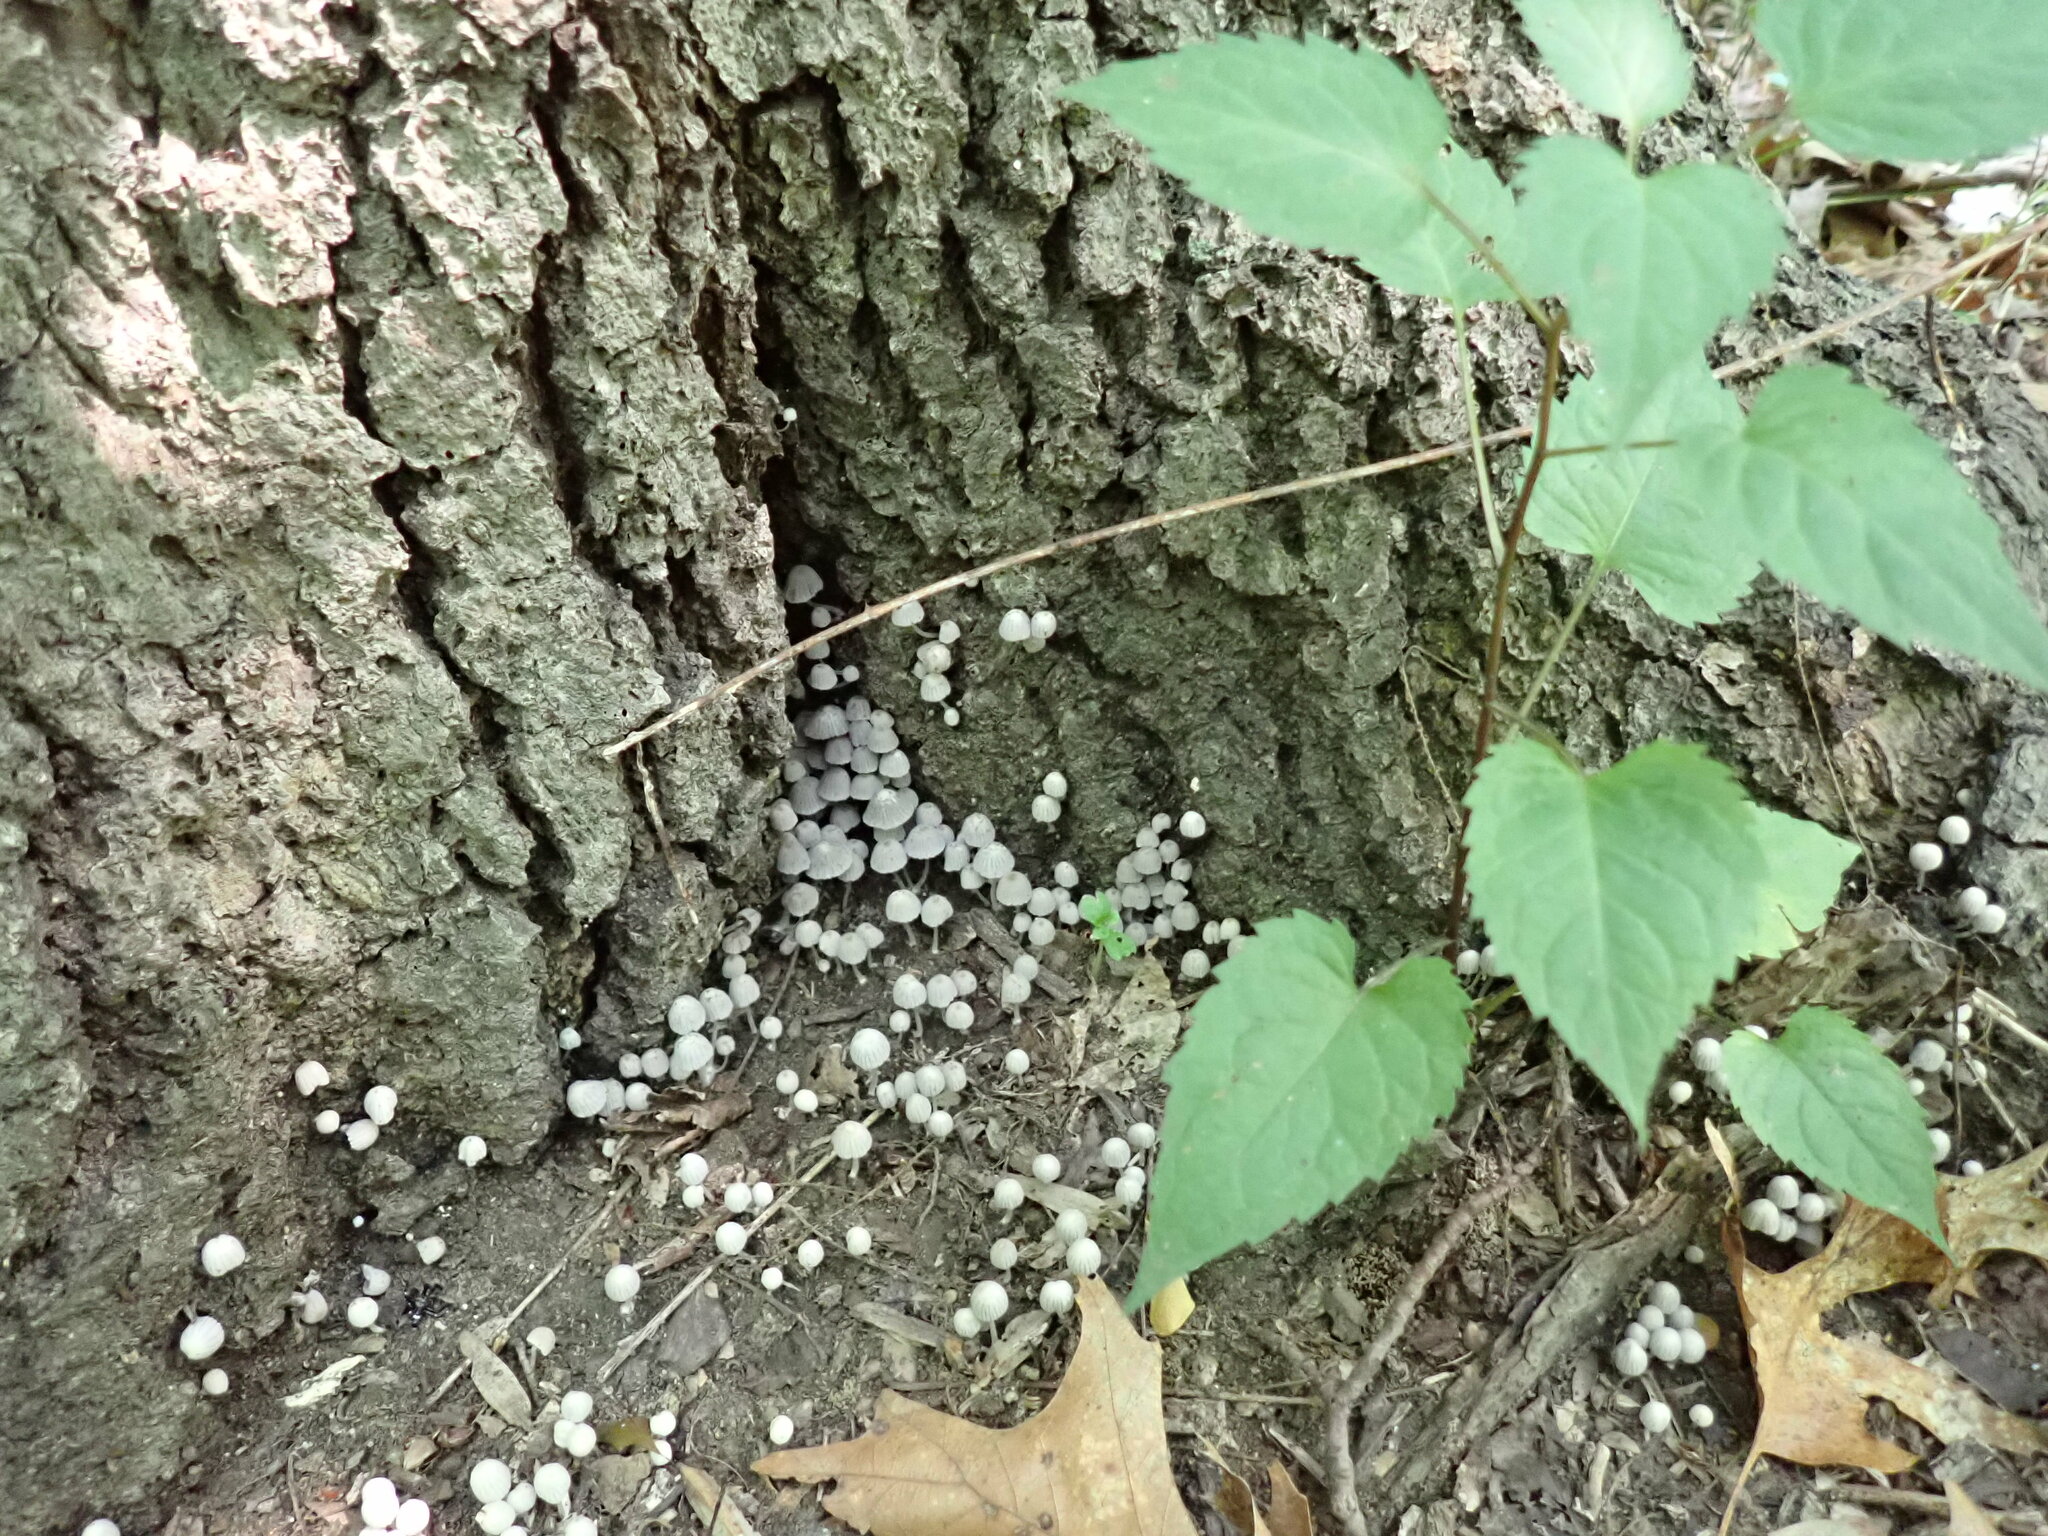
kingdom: Fungi
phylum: Basidiomycota
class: Agaricomycetes
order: Agaricales
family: Psathyrellaceae
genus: Coprinellus
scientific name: Coprinellus disseminatus
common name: Fairies' bonnets
